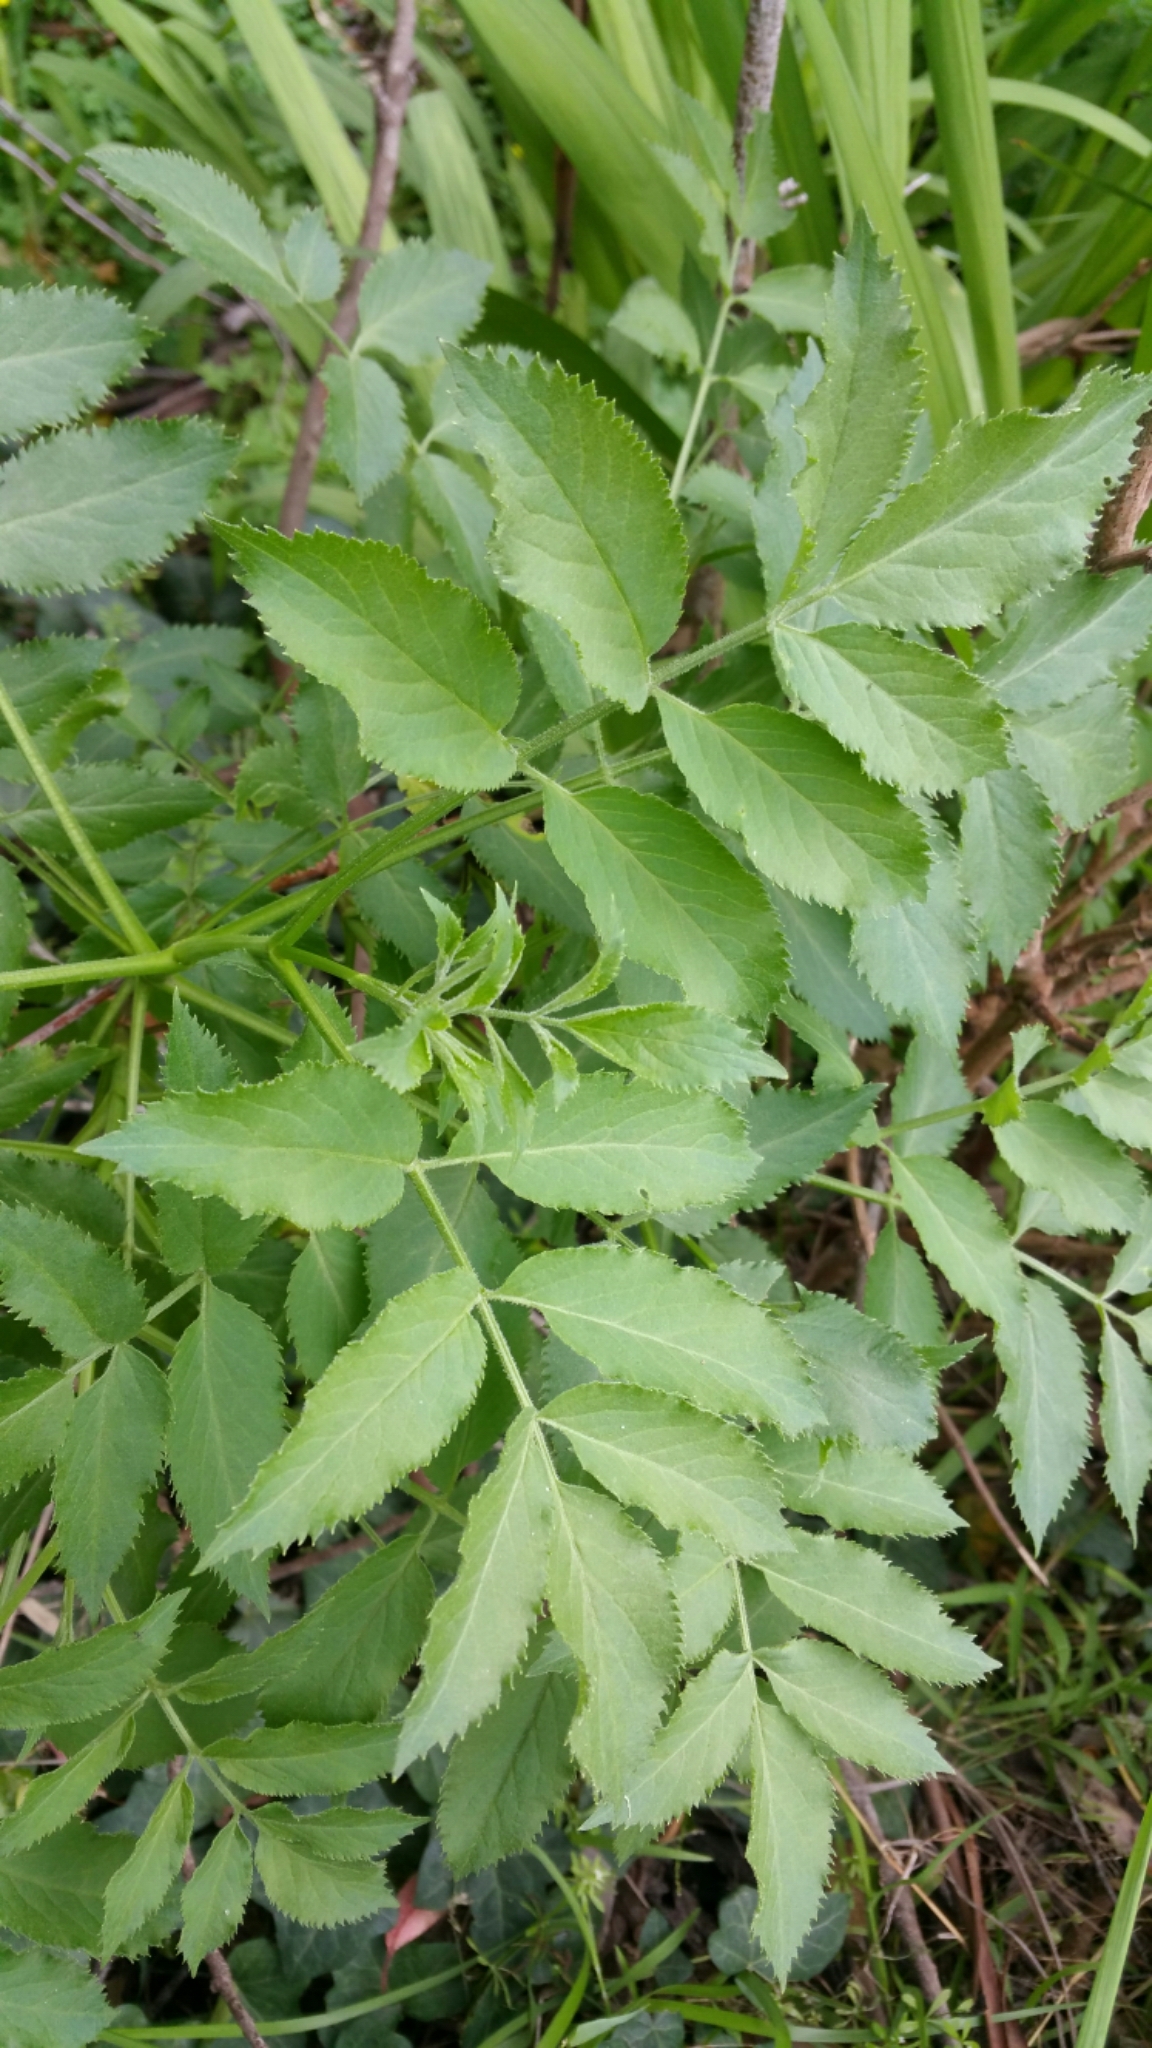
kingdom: Plantae
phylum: Tracheophyta
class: Magnoliopsida
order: Dipsacales
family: Viburnaceae
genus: Sambucus
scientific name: Sambucus cerulea
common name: Blue elder
